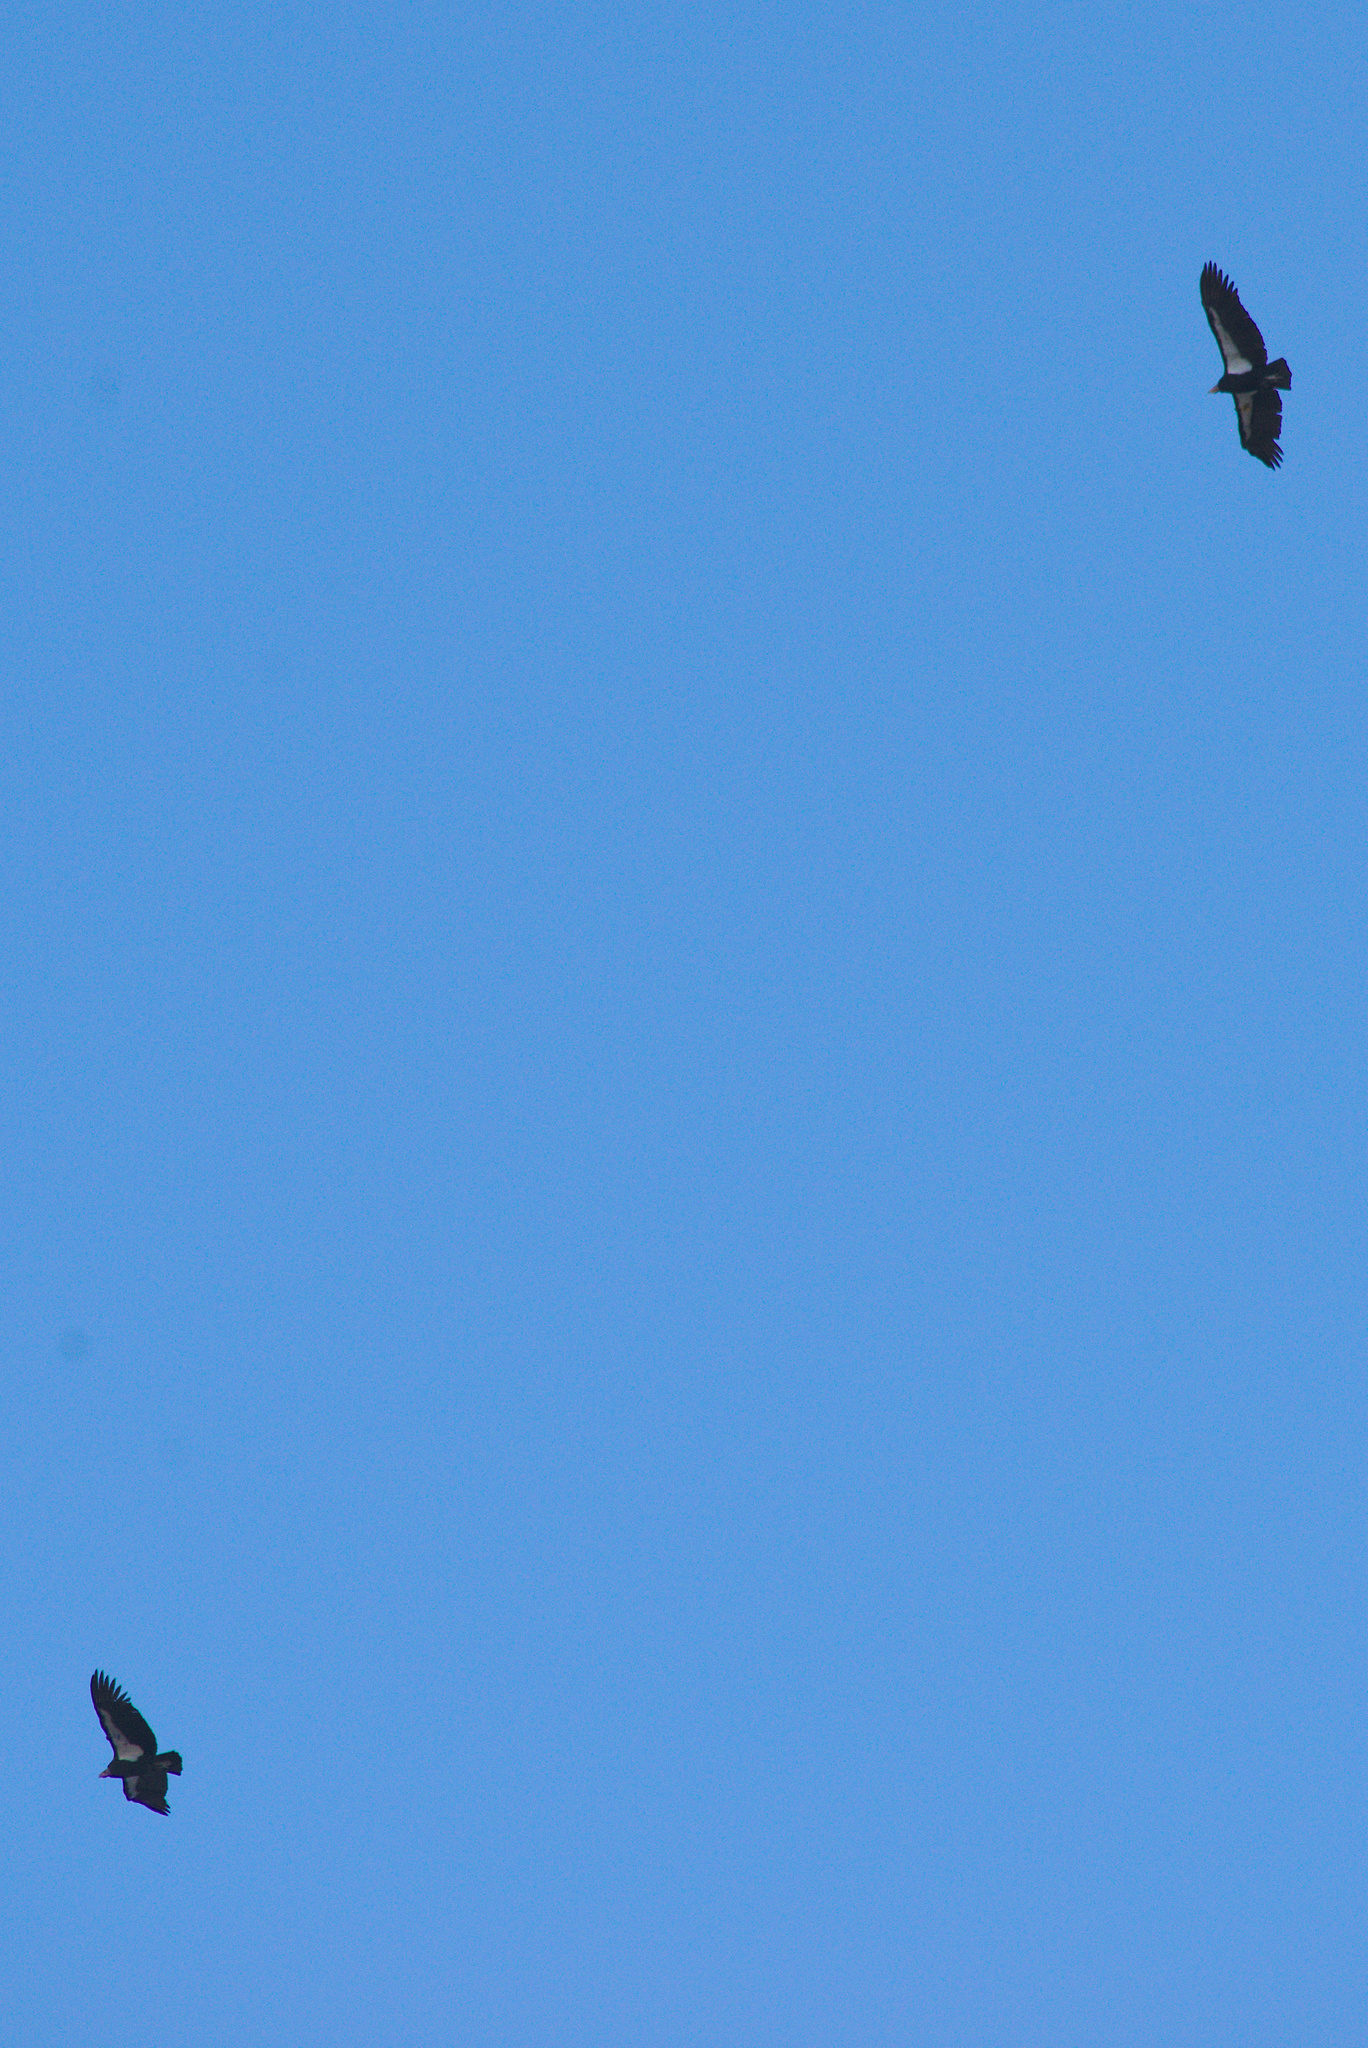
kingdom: Animalia
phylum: Chordata
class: Aves
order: Accipitriformes
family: Cathartidae
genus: Gymnogyps
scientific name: Gymnogyps californianus
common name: California condor
